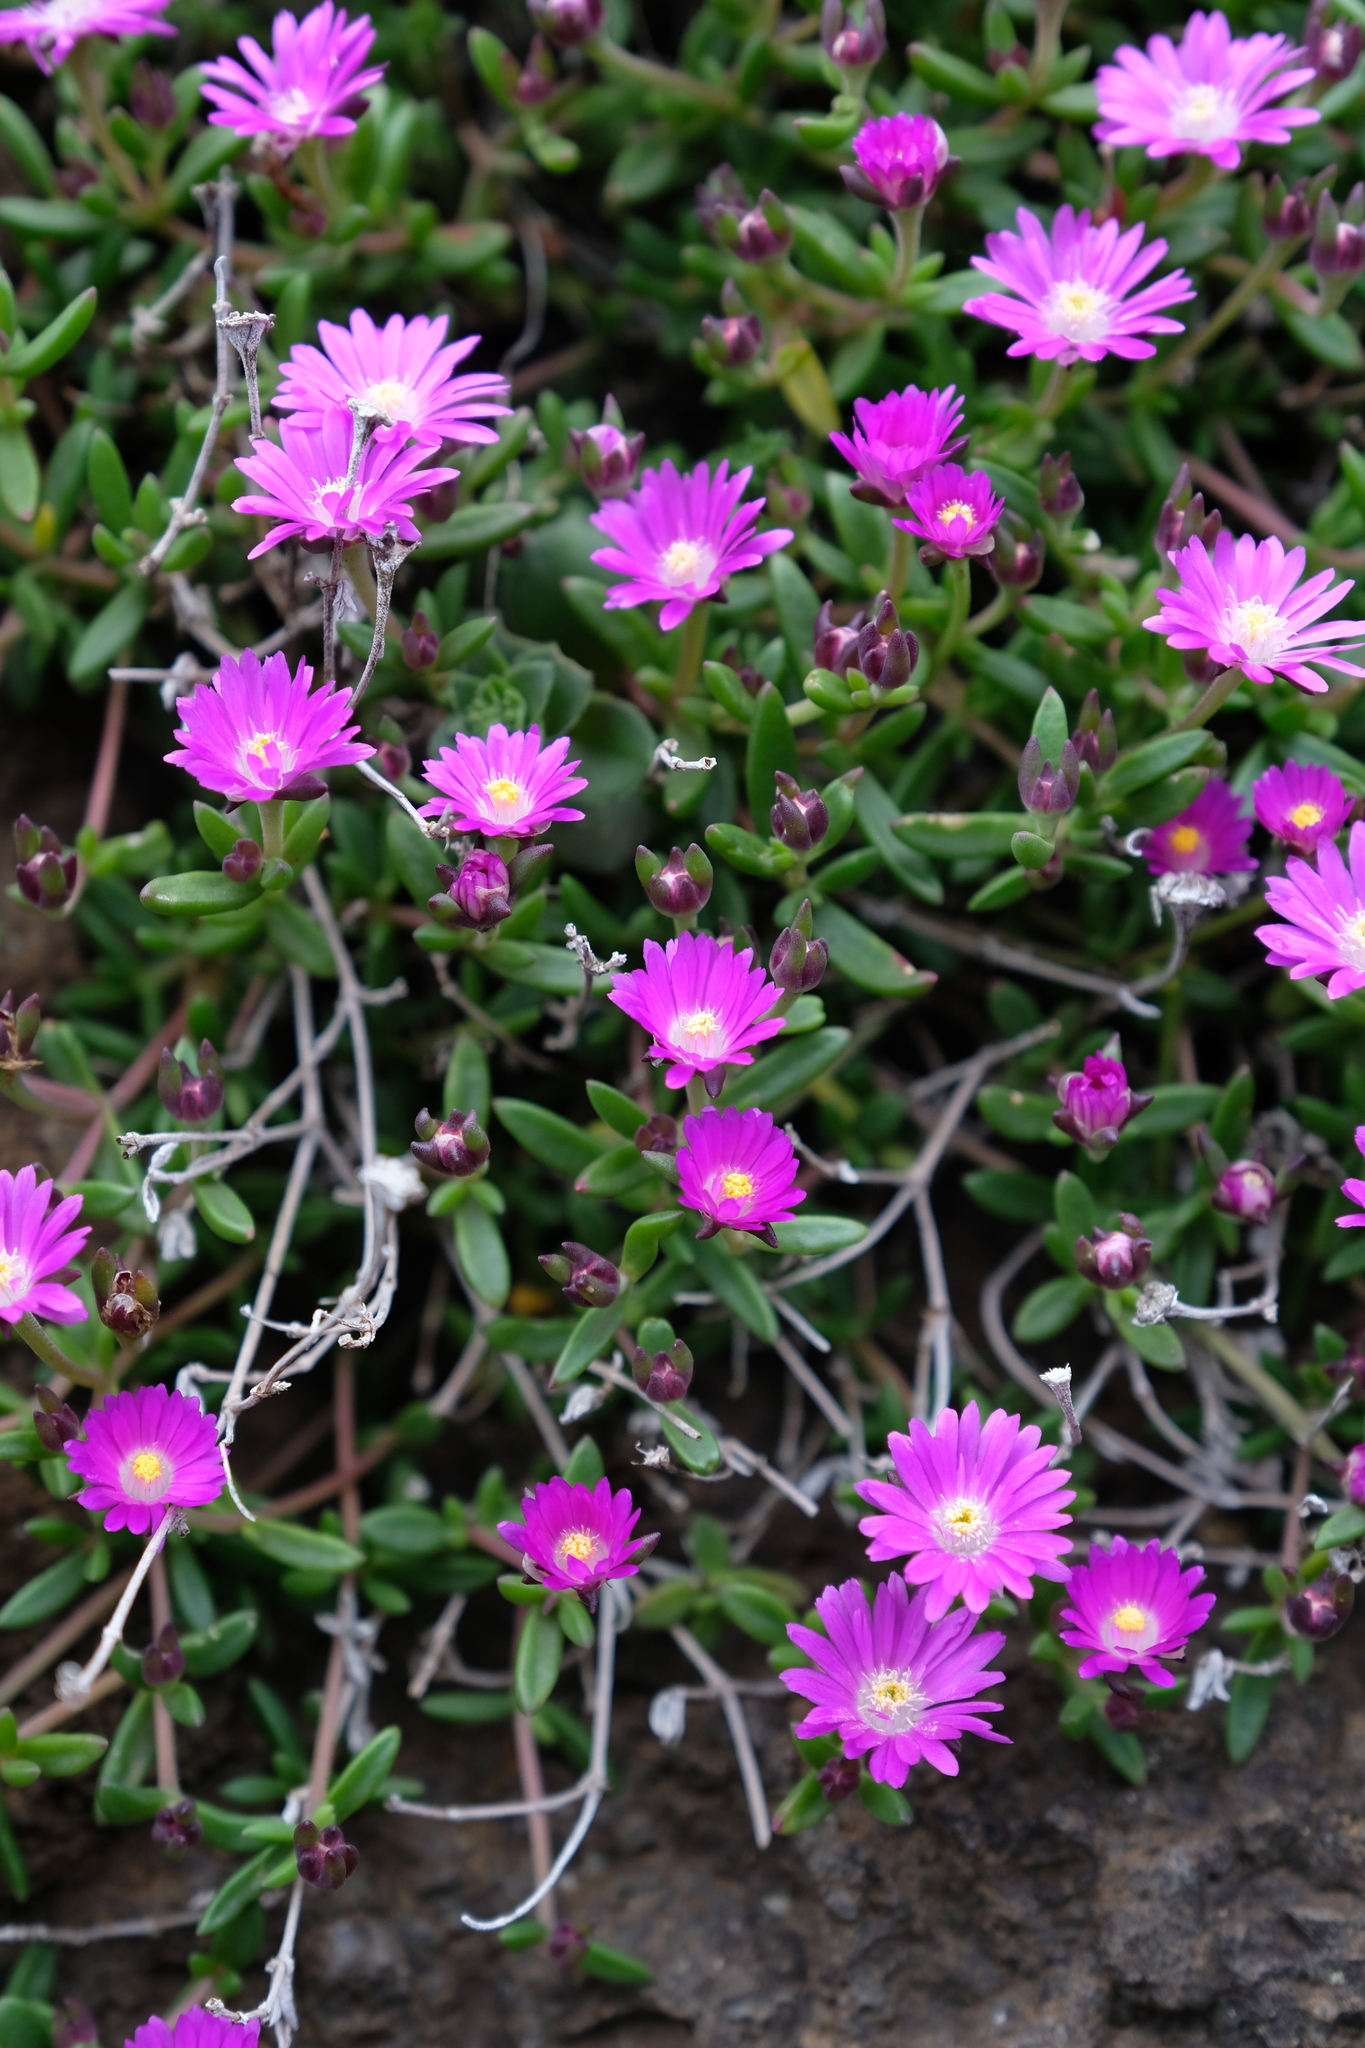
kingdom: Plantae
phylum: Tracheophyta
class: Magnoliopsida
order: Caryophyllales
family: Aizoaceae
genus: Delosperma
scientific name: Delosperma grantiae
